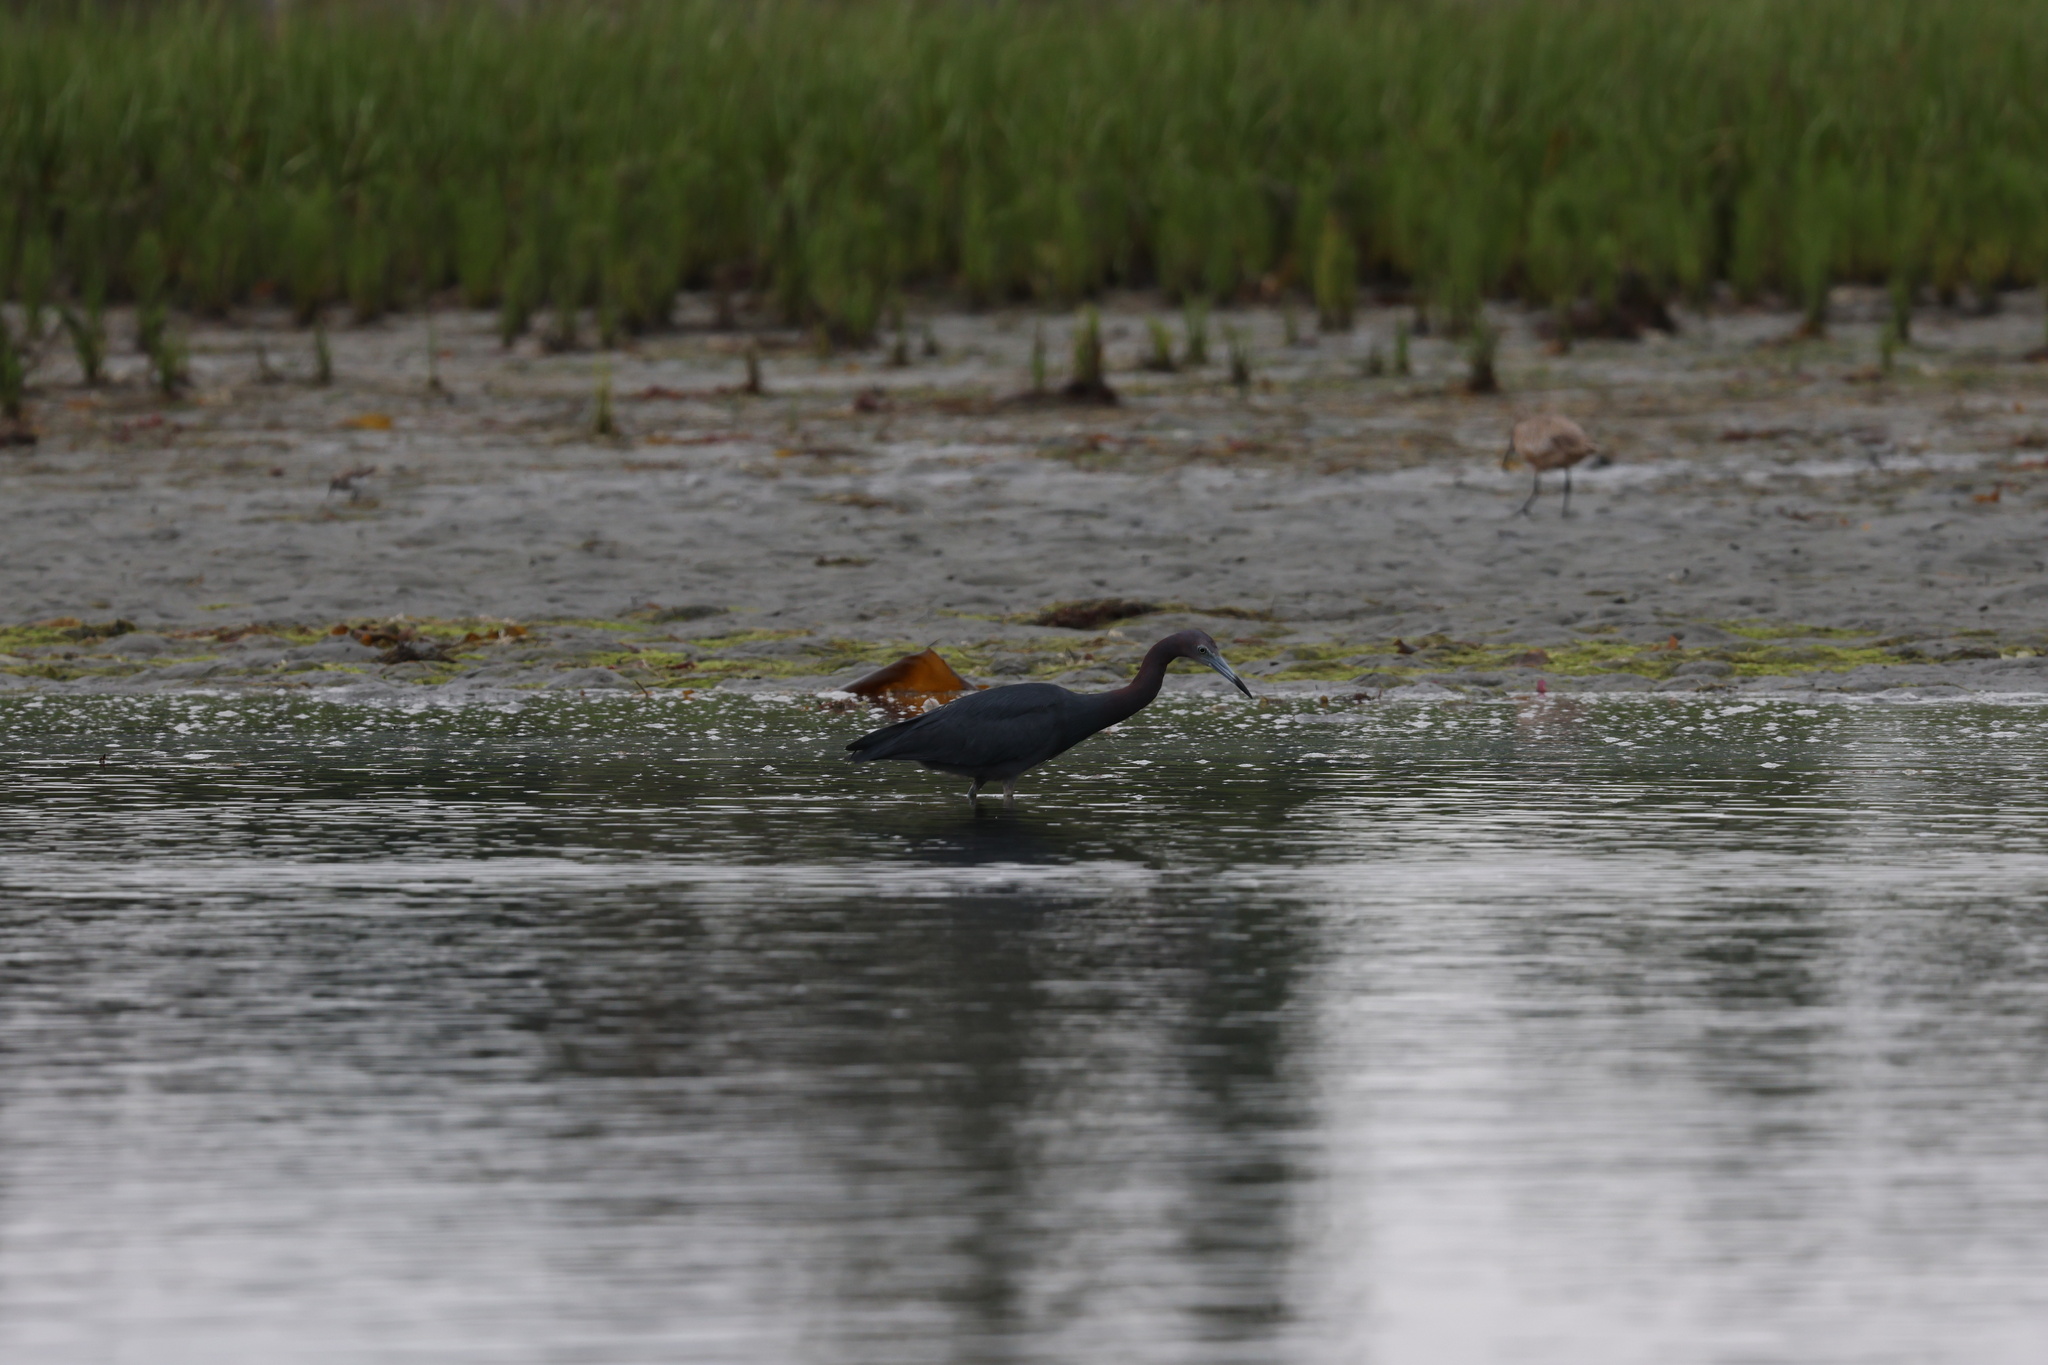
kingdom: Animalia
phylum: Chordata
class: Aves
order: Pelecaniformes
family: Ardeidae
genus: Egretta
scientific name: Egretta caerulea
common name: Little blue heron
